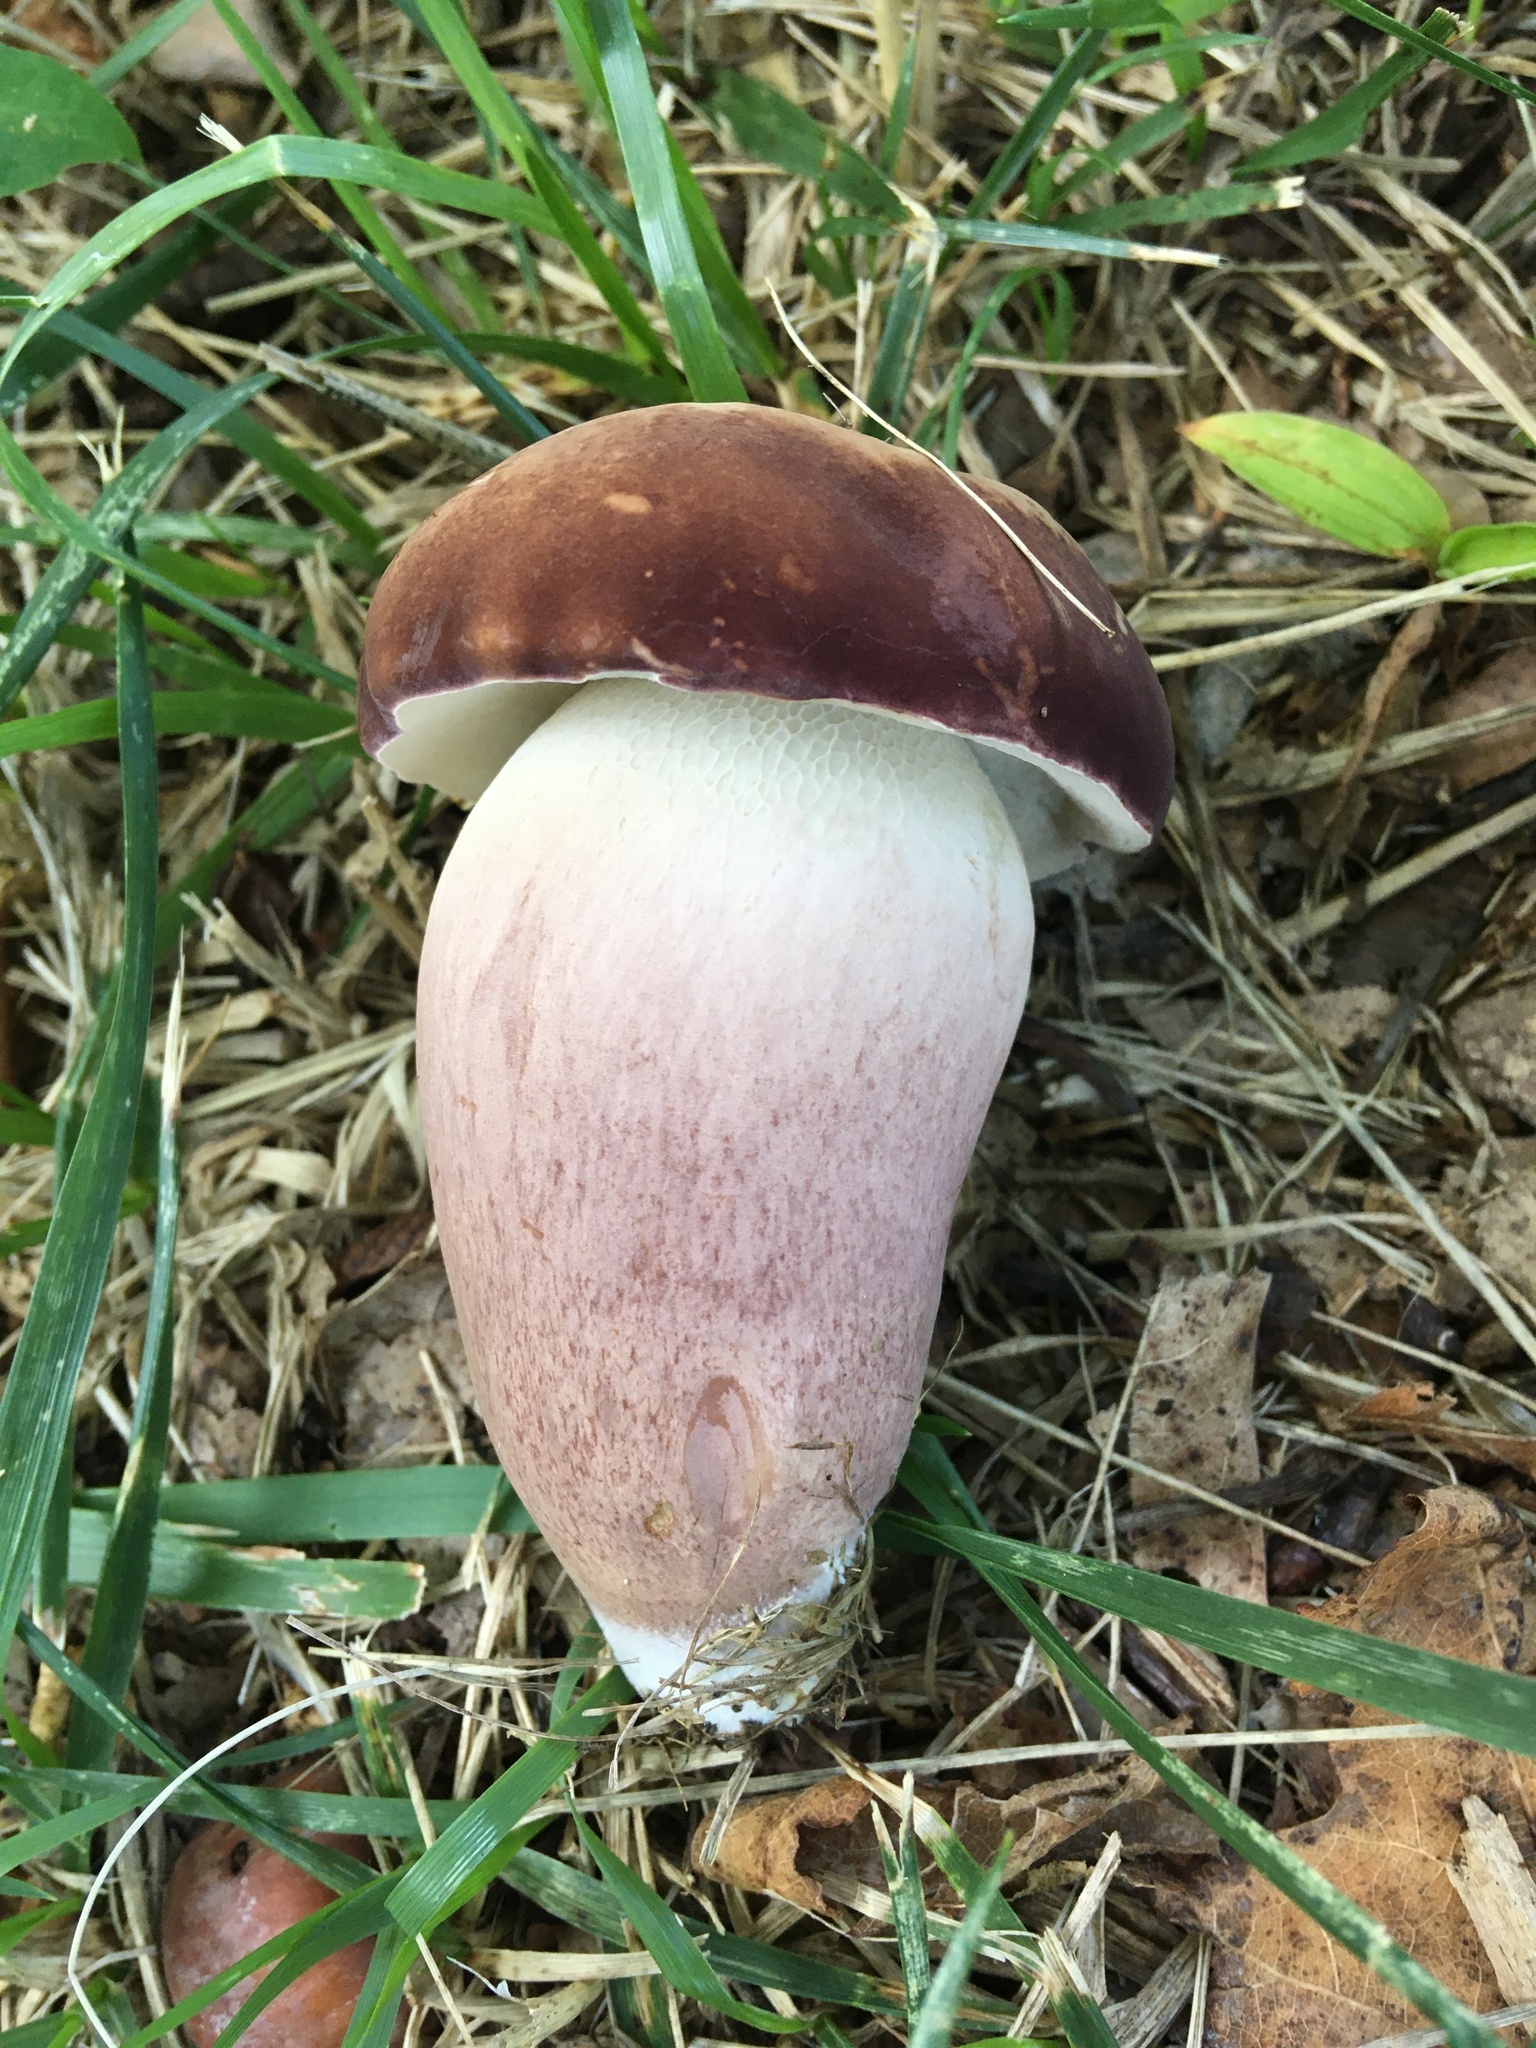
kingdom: Fungi
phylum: Basidiomycota
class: Agaricomycetes
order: Boletales
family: Boletaceae
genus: Tylopilus
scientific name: Tylopilus ferrugineus
